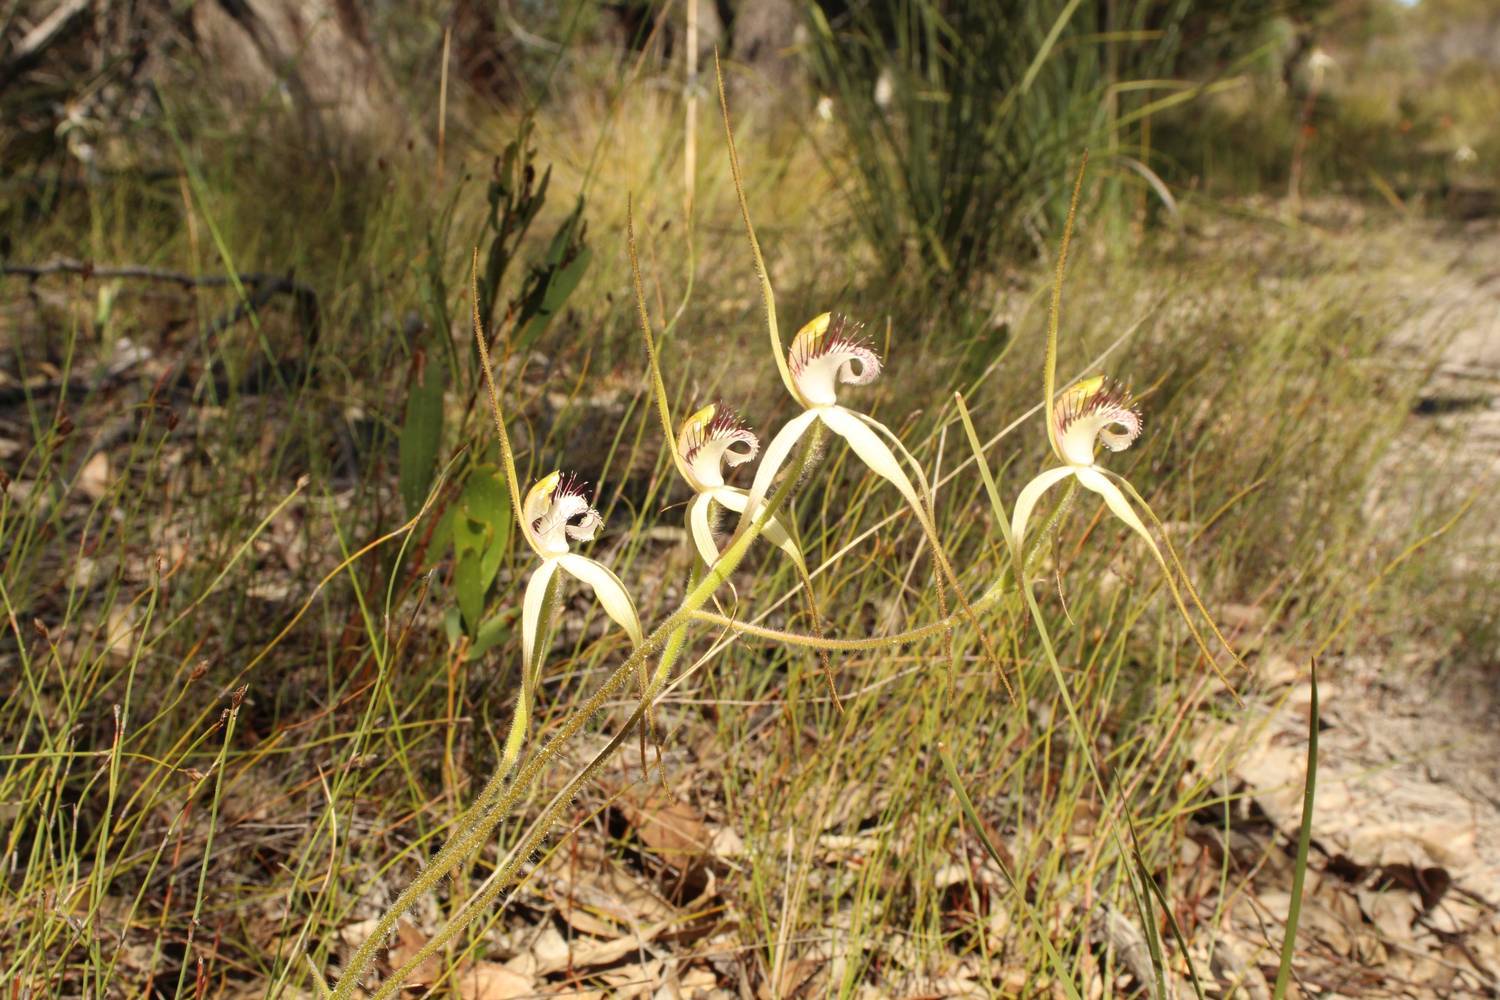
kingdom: Plantae
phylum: Tracheophyta
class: Liliopsida
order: Asparagales
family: Orchidaceae
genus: Caladenia
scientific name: Caladenia longicauda
